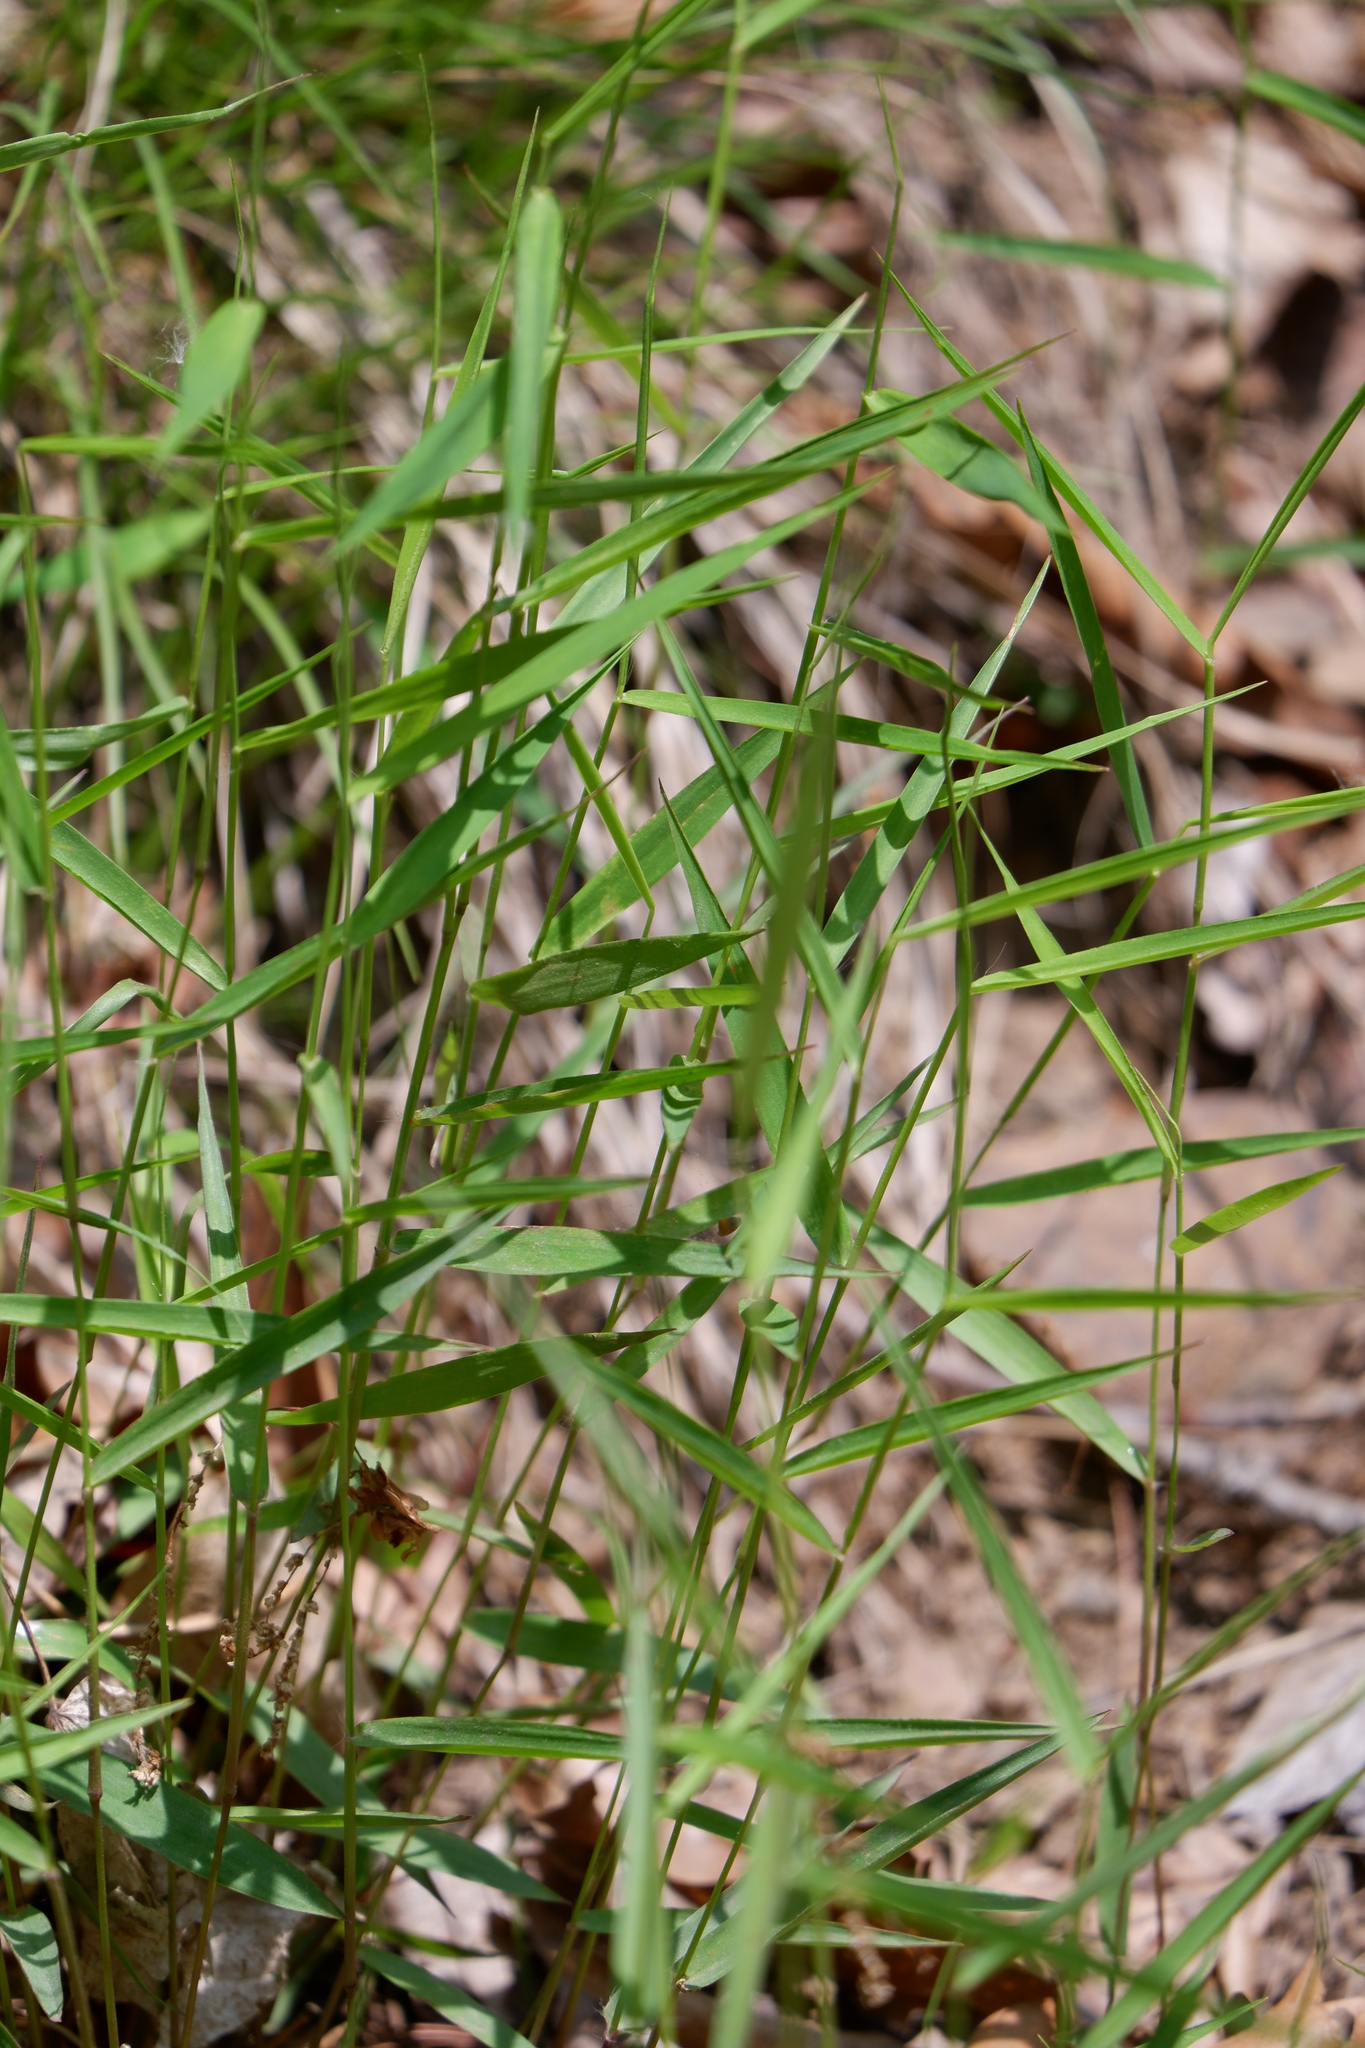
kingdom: Plantae
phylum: Tracheophyta
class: Liliopsida
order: Poales
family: Poaceae
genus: Muhlenbergia
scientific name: Muhlenbergia schreberi
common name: Nimblewill
